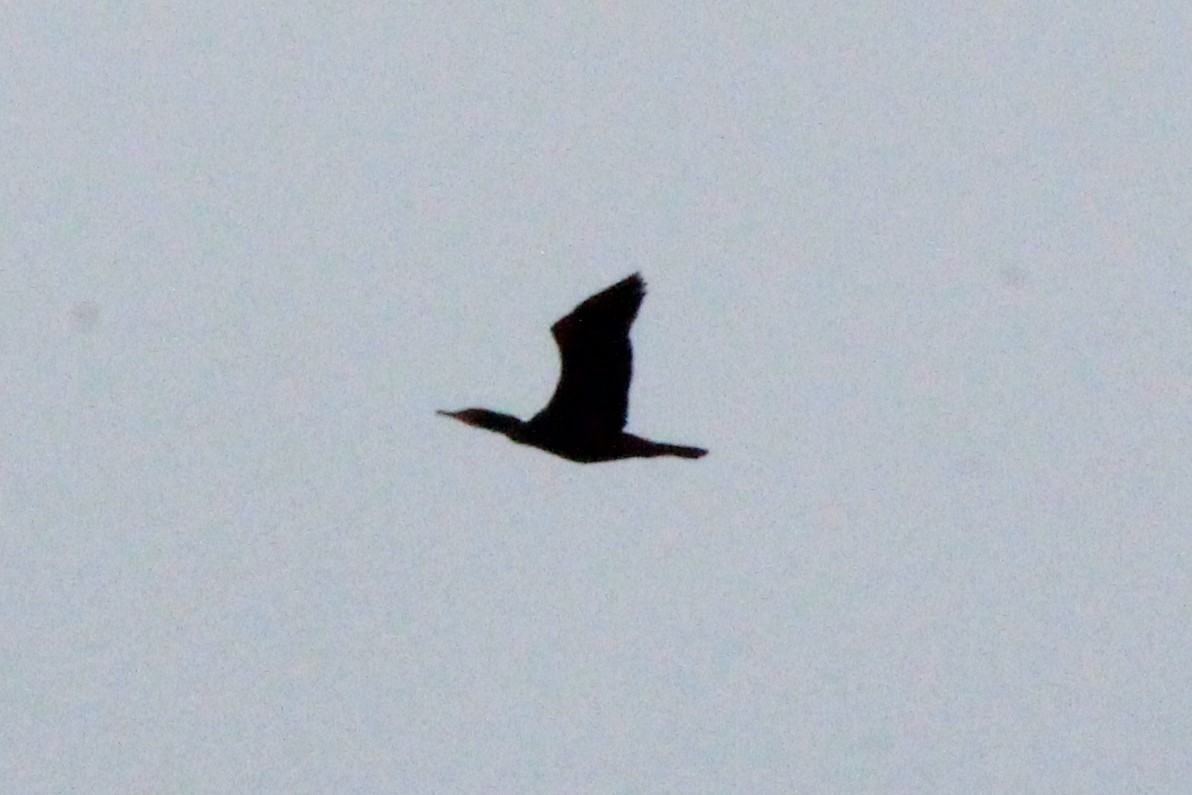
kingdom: Animalia
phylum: Chordata
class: Aves
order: Suliformes
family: Phalacrocoracidae
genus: Phalacrocorax
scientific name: Phalacrocorax auritus
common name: Double-crested cormorant
